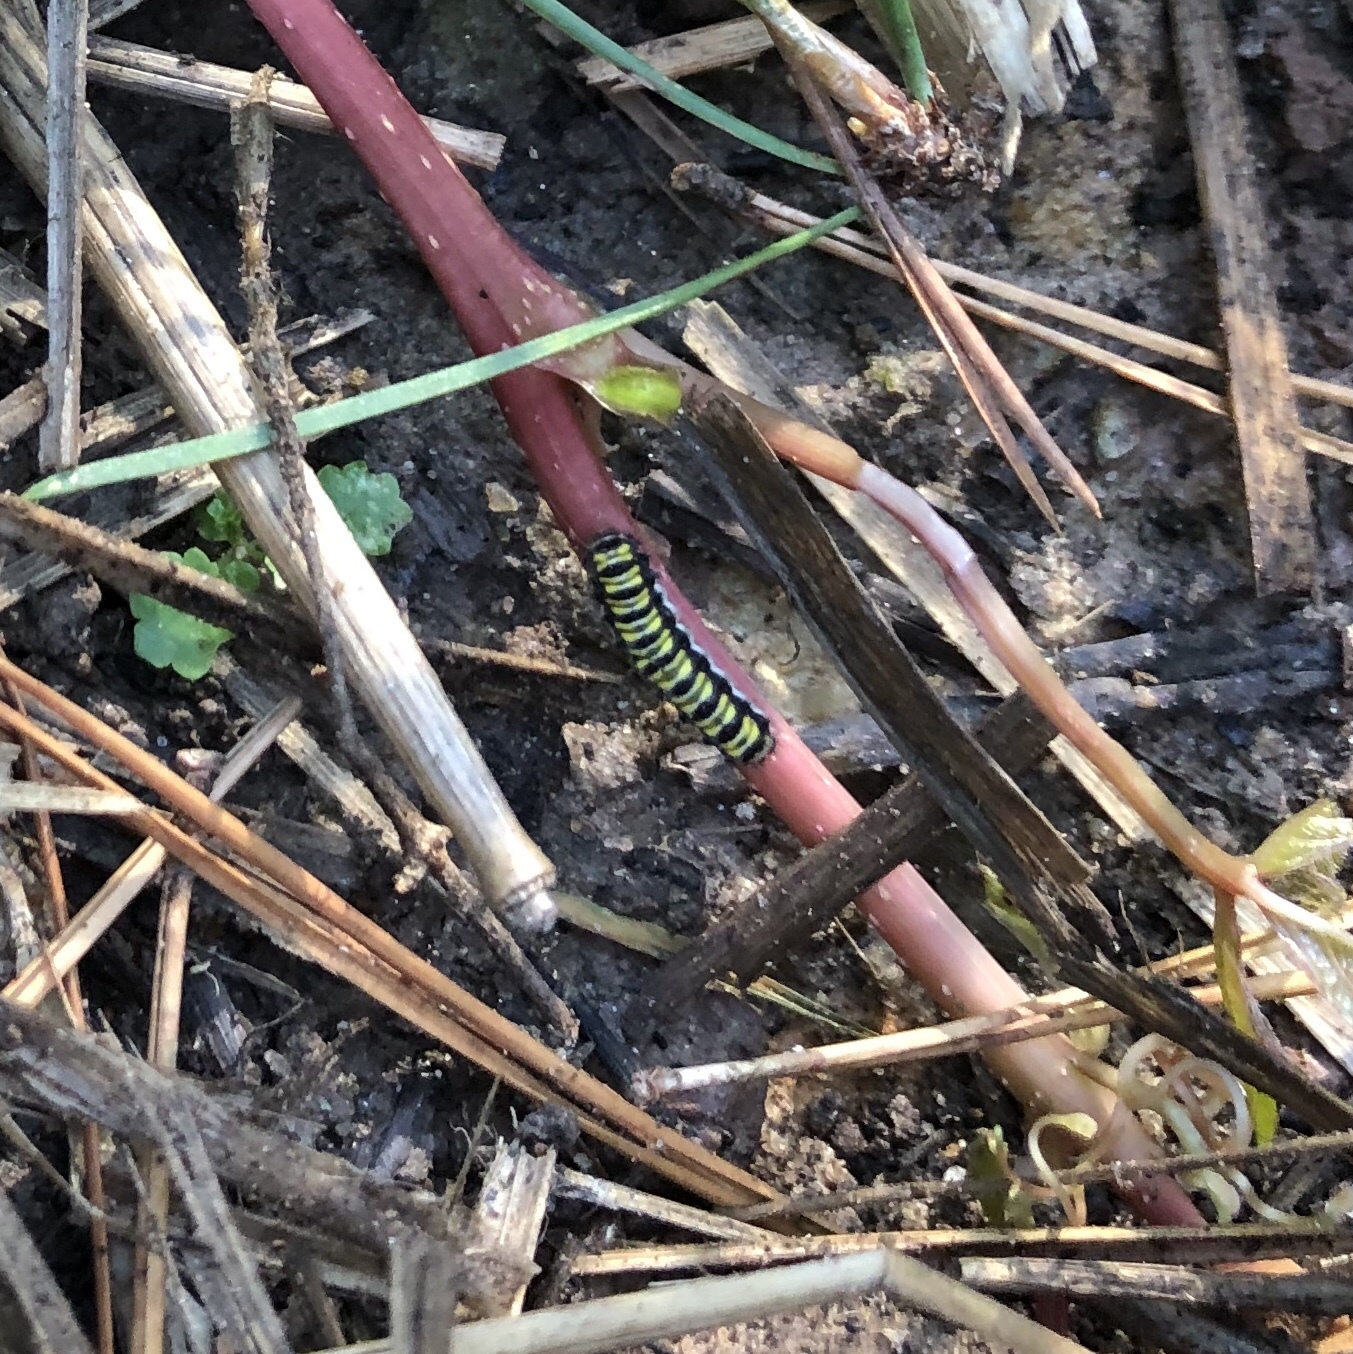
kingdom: Animalia
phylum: Arthropoda
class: Insecta
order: Lepidoptera
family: Zygaenidae
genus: Harrisina
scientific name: Harrisina americana
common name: Grapeleaf skeletonizer moth
